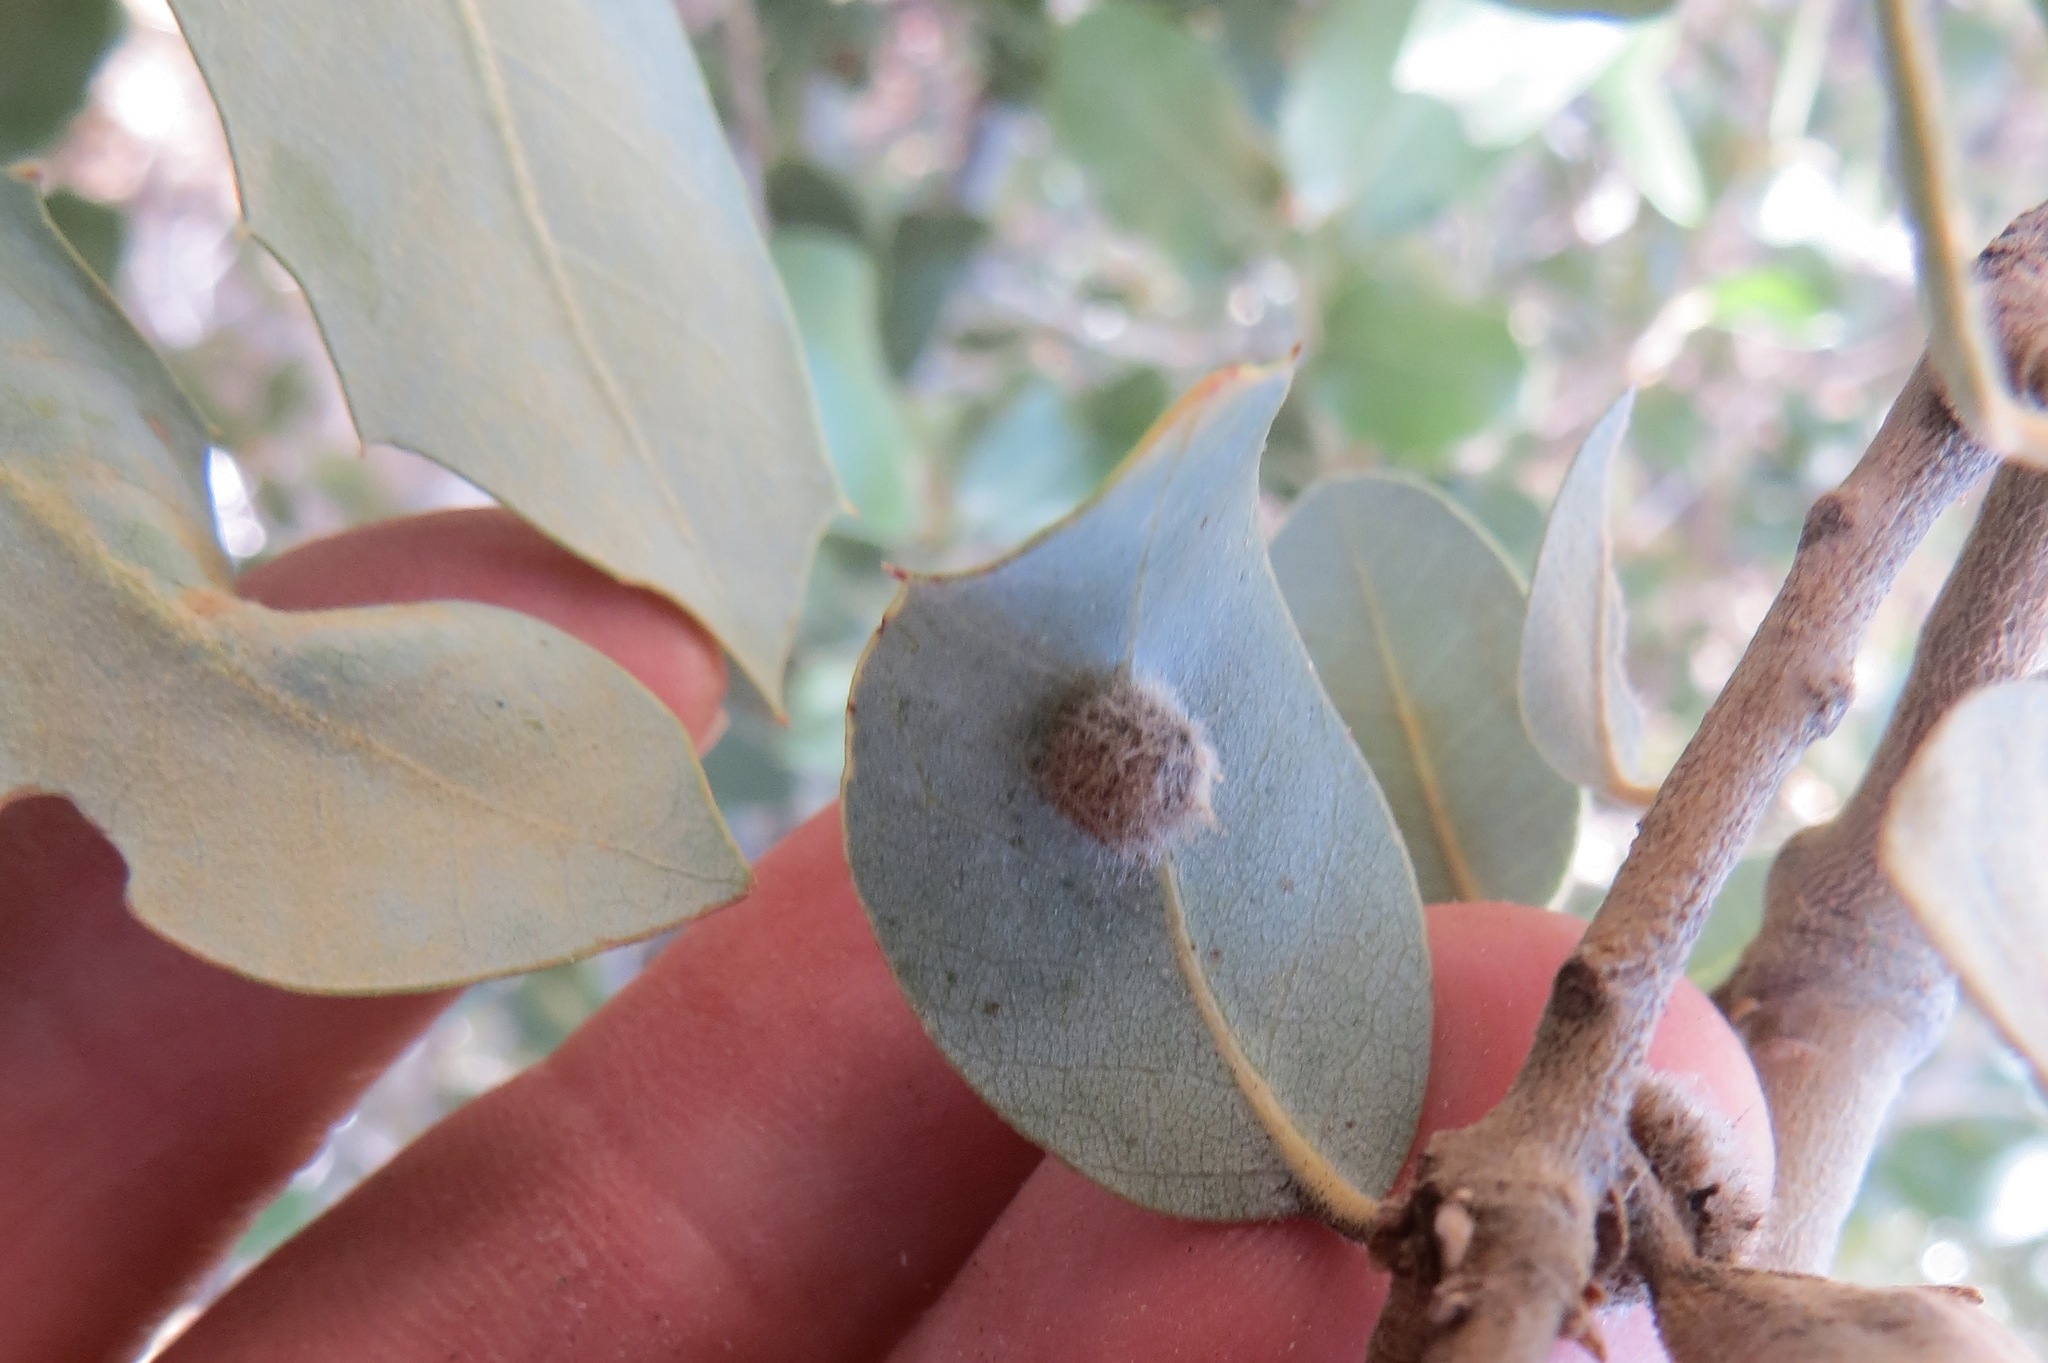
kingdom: Animalia
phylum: Arthropoda
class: Insecta
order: Hymenoptera
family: Cynipidae
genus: Disholandricus
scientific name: Disholandricus
